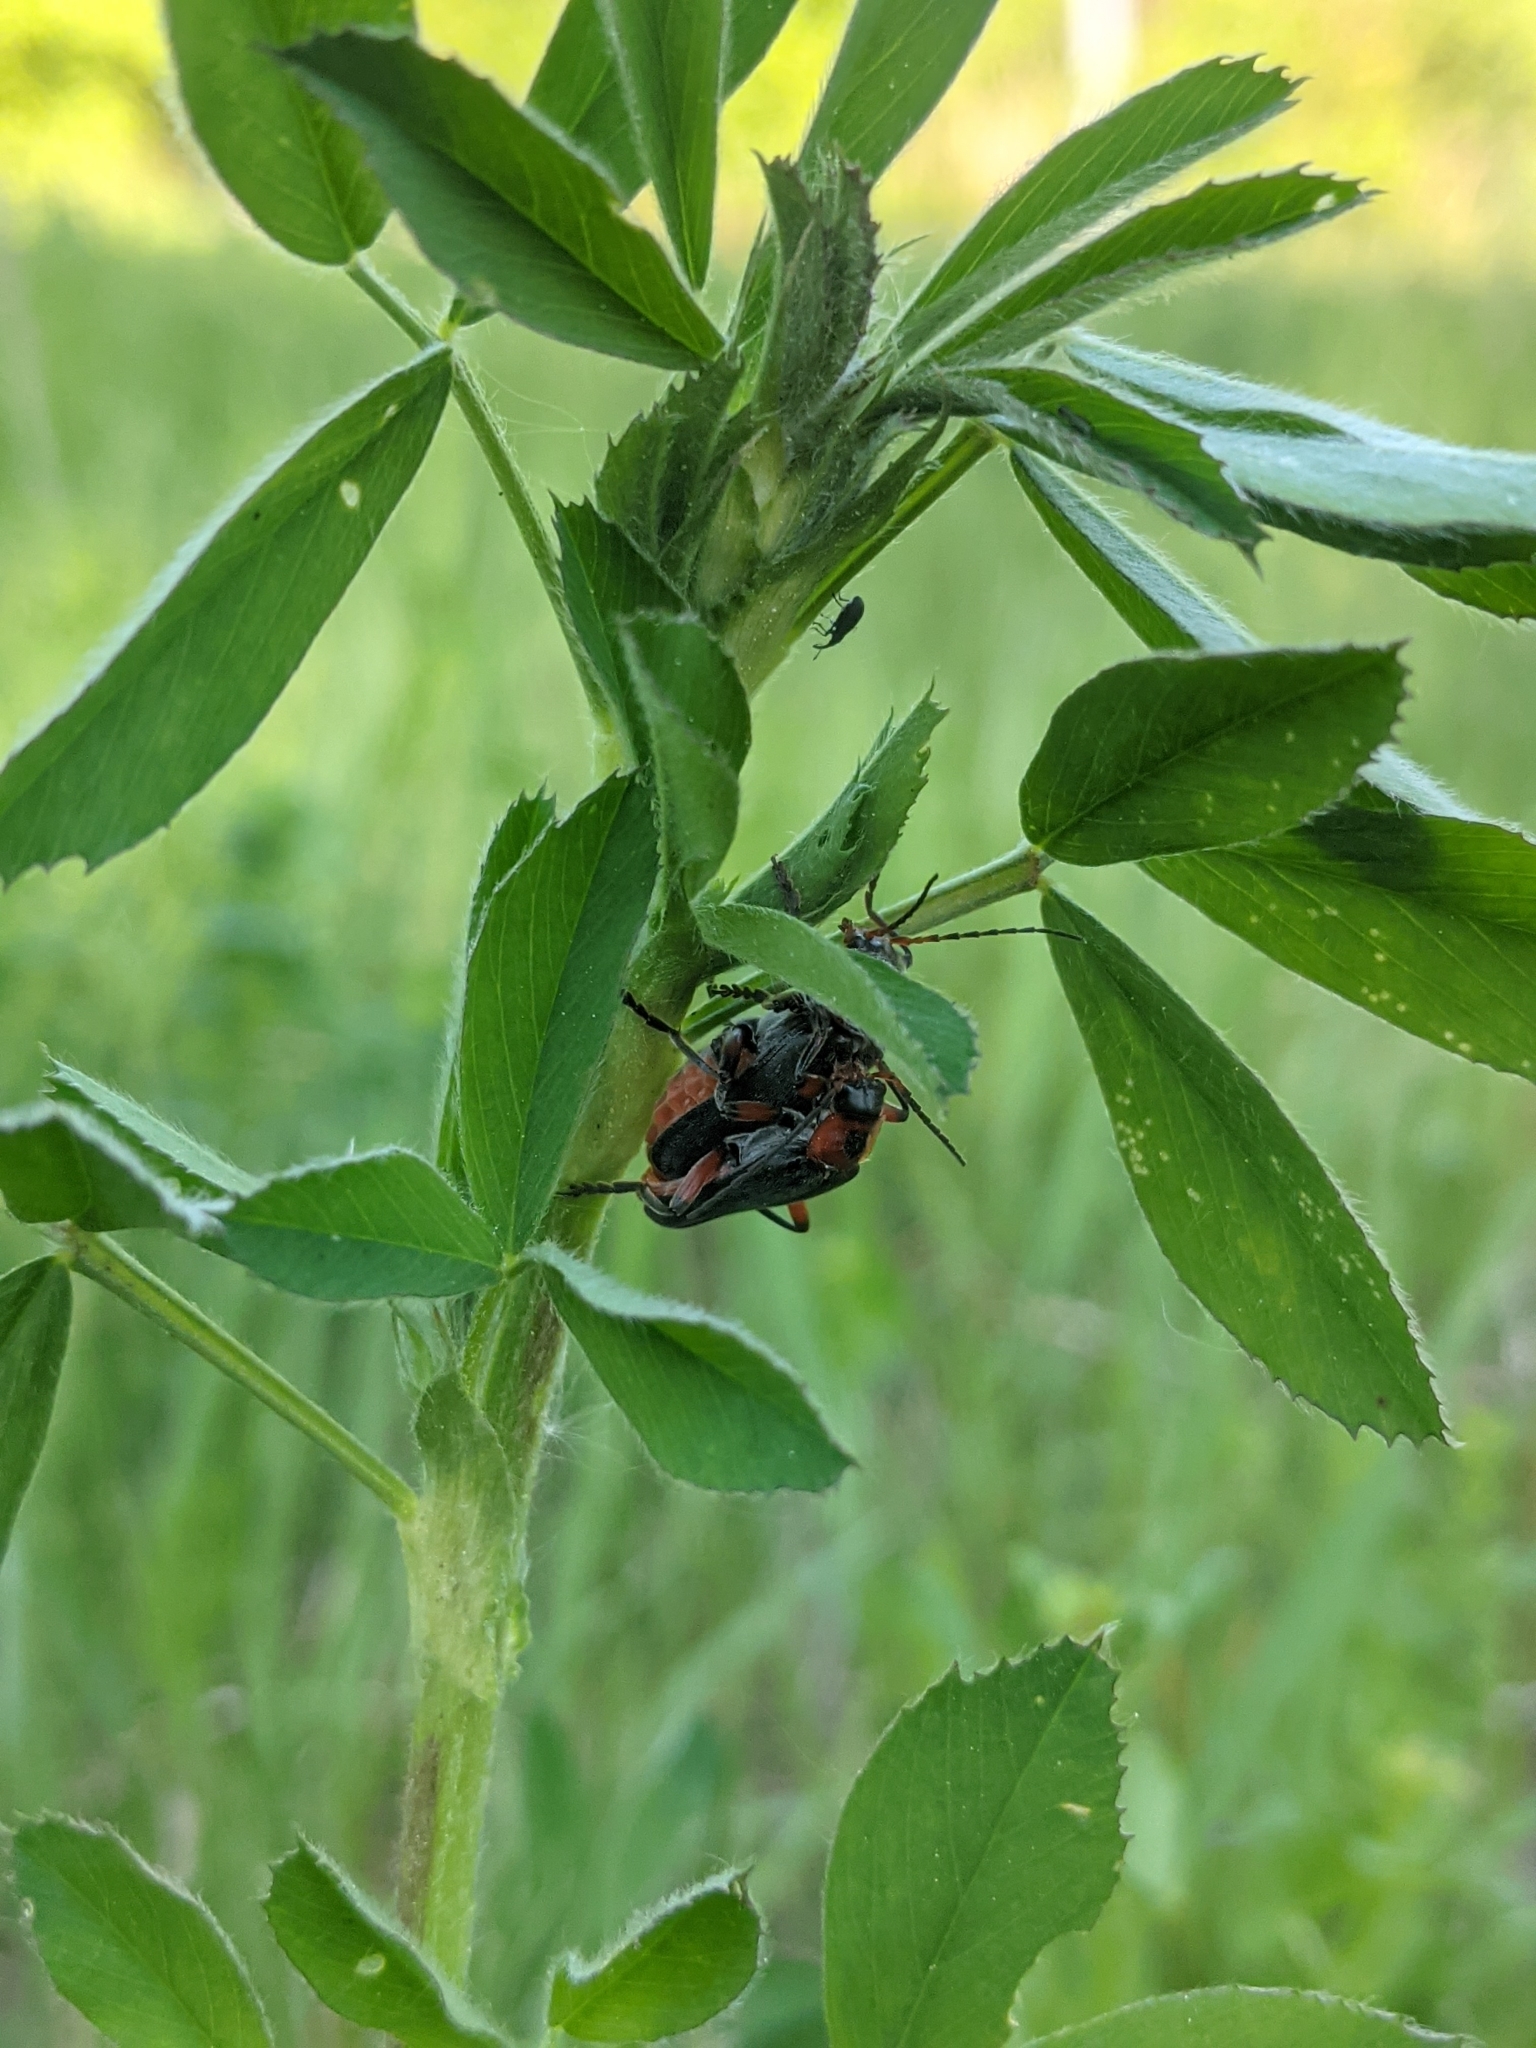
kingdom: Animalia
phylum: Arthropoda
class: Insecta
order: Coleoptera
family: Cantharidae
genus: Cantharis
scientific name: Cantharis rustica
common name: Soldier beetle
